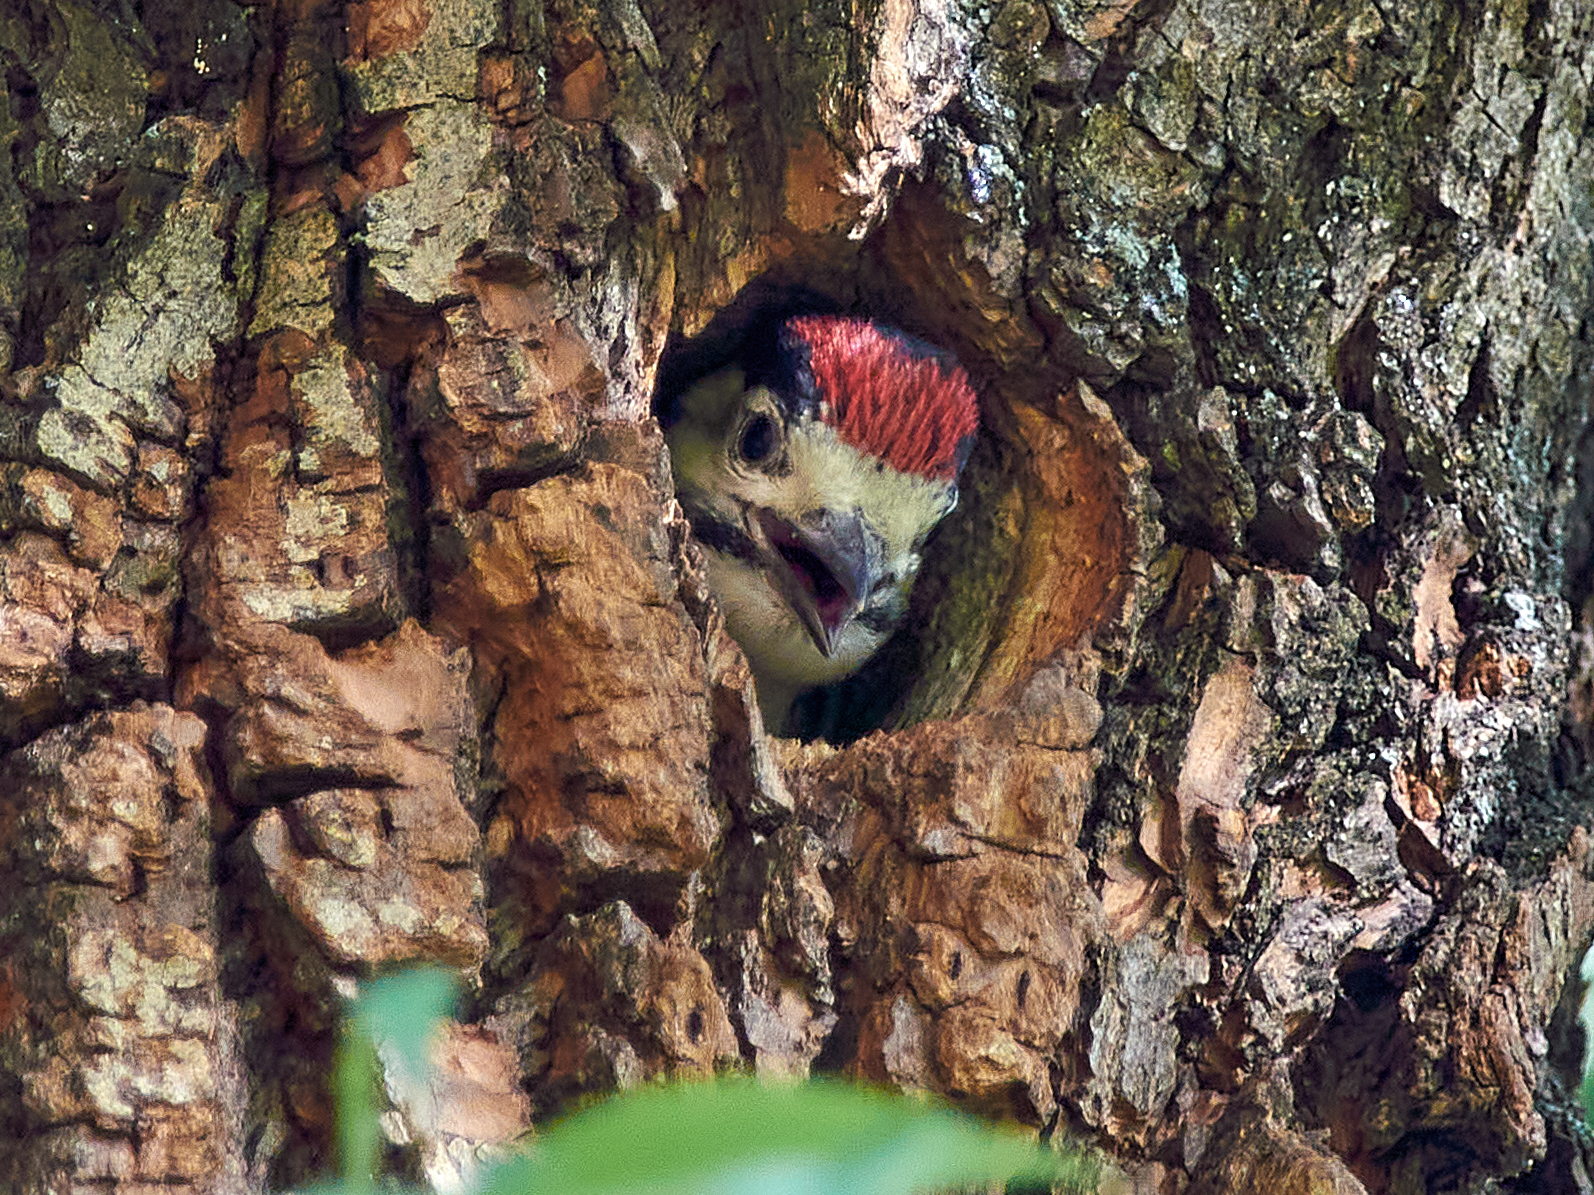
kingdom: Animalia
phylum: Chordata
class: Aves
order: Piciformes
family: Picidae
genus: Dendrocopos
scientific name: Dendrocopos major
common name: Great spotted woodpecker
